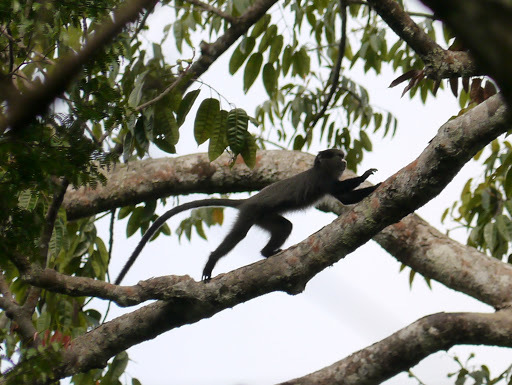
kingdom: Animalia
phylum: Chordata
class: Mammalia
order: Primates
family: Cercopithecidae
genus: Cercopithecus
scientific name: Cercopithecus nictitans
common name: Greater spot-nosed monkey
